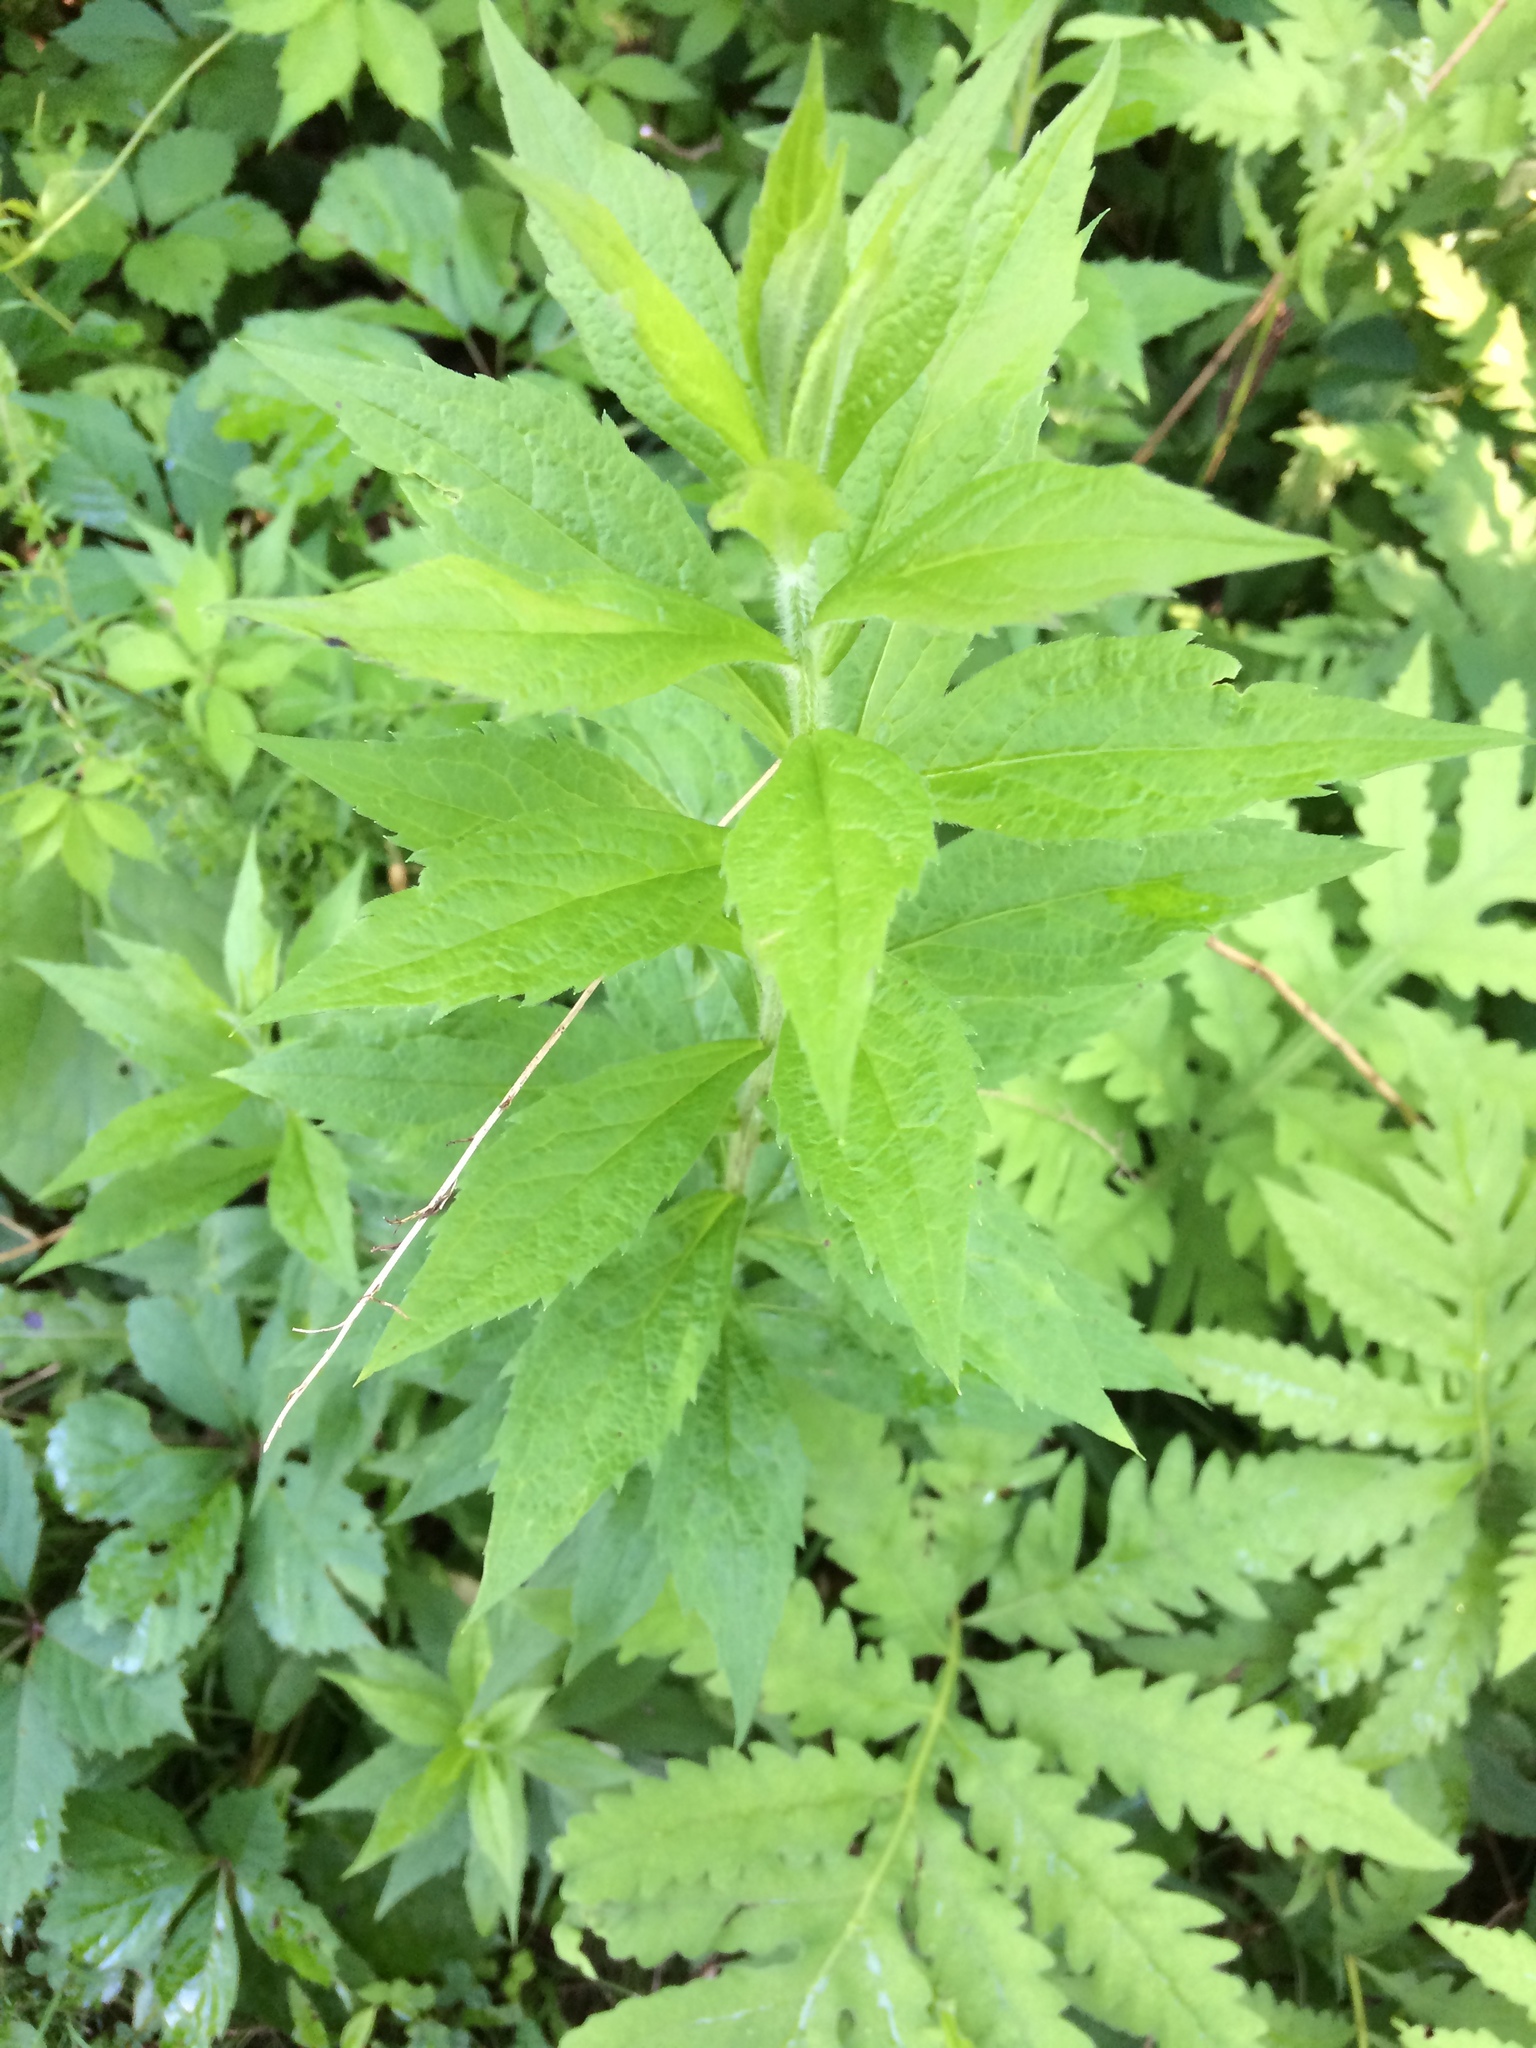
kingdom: Plantae
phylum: Tracheophyta
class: Magnoliopsida
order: Asterales
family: Asteraceae
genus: Solidago
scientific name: Solidago rugosa
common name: Rough-stemmed goldenrod
